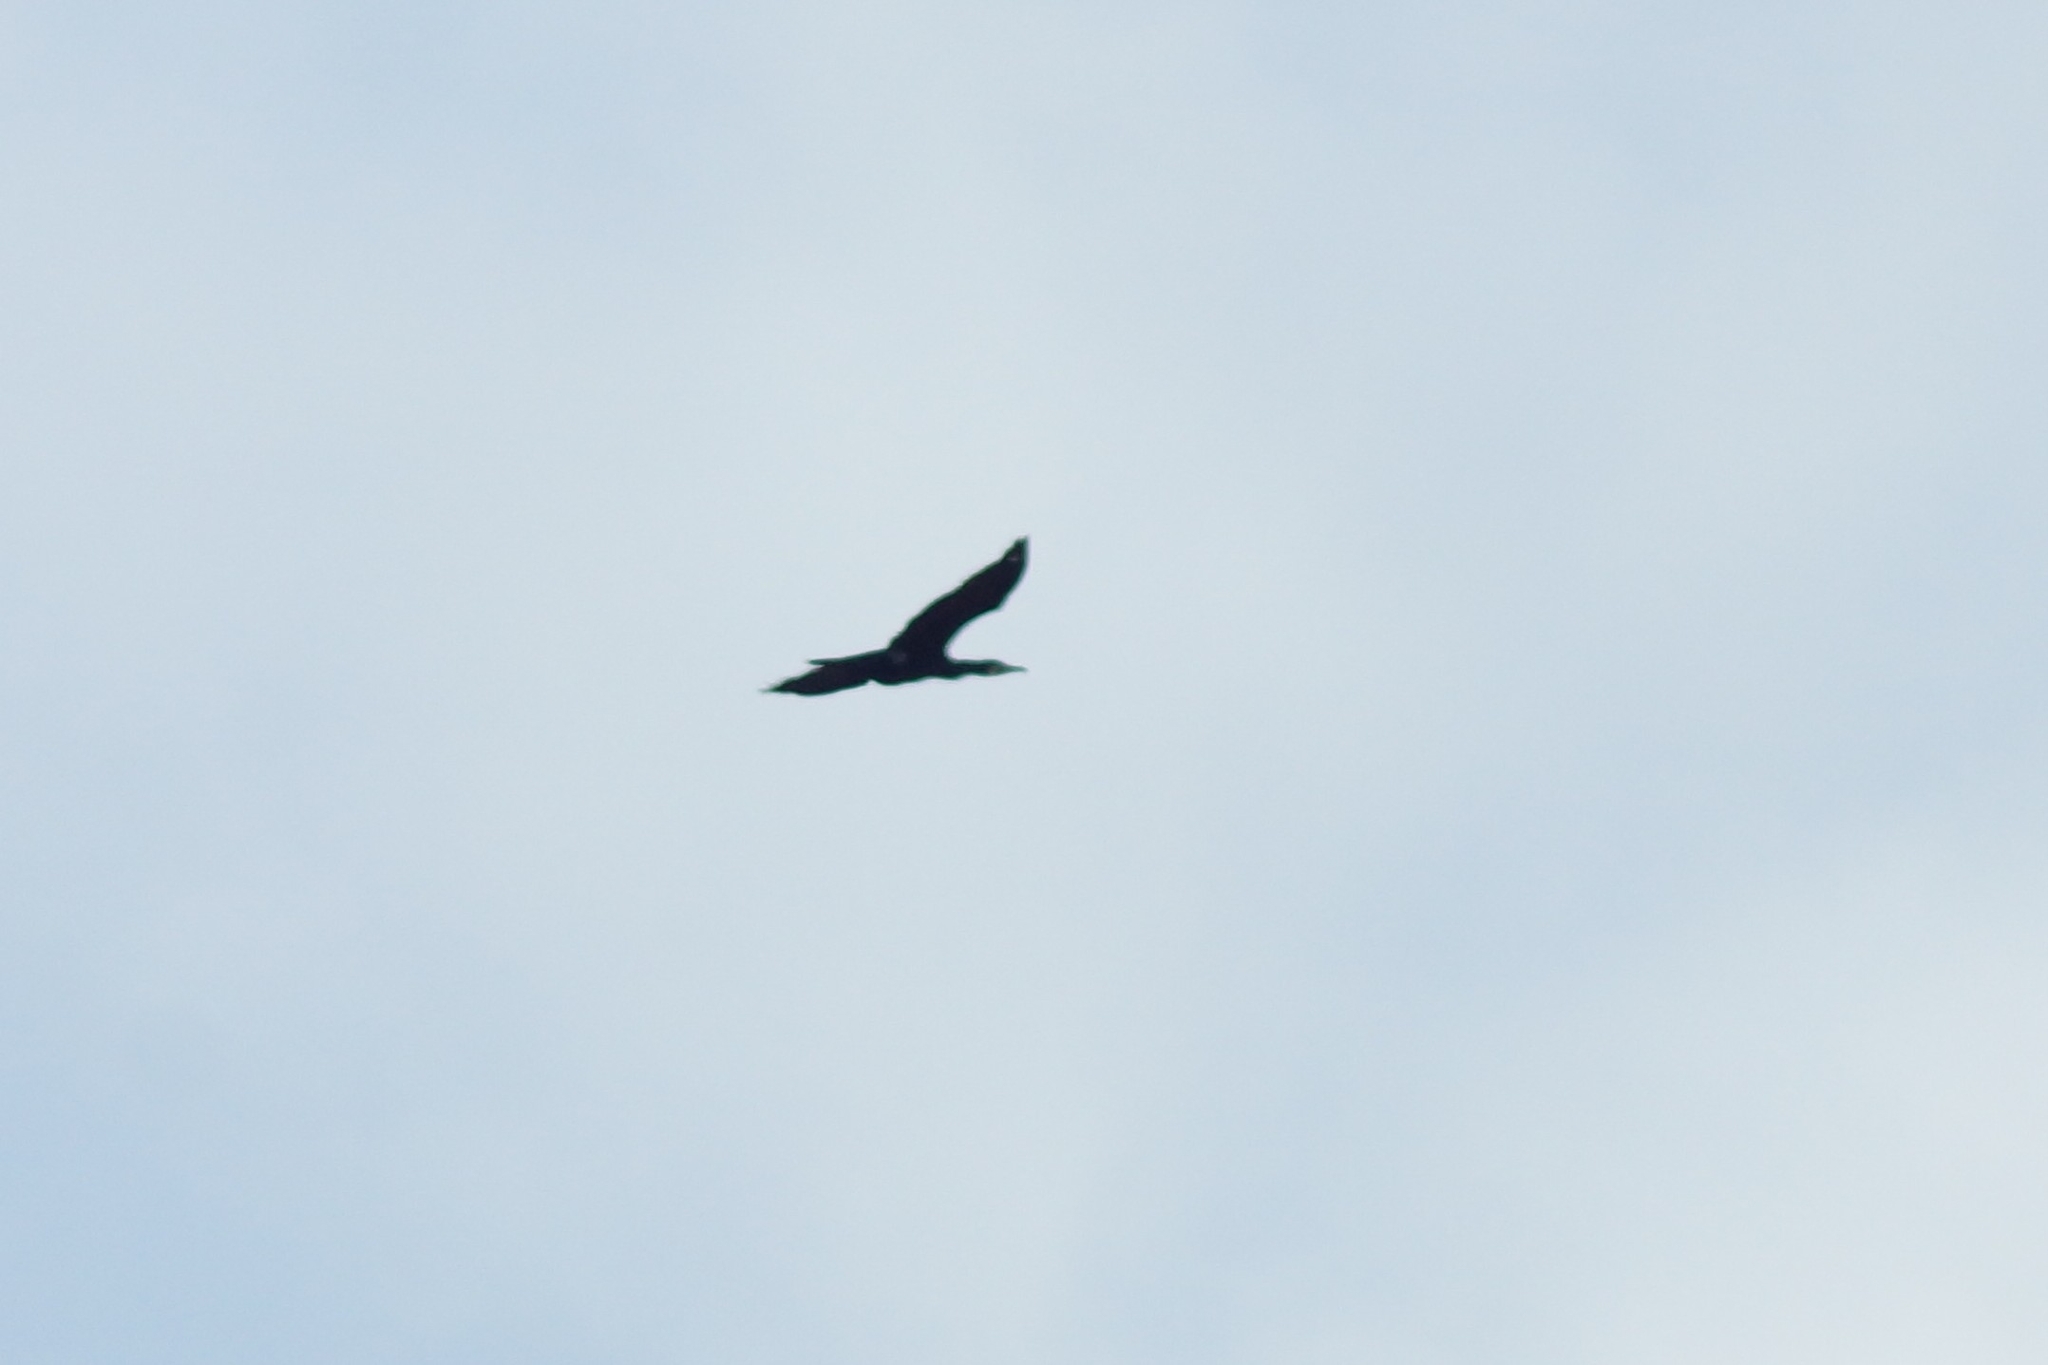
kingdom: Animalia
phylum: Chordata
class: Aves
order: Suliformes
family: Phalacrocoracidae
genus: Phalacrocorax
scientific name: Phalacrocorax carbo
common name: Great cormorant
